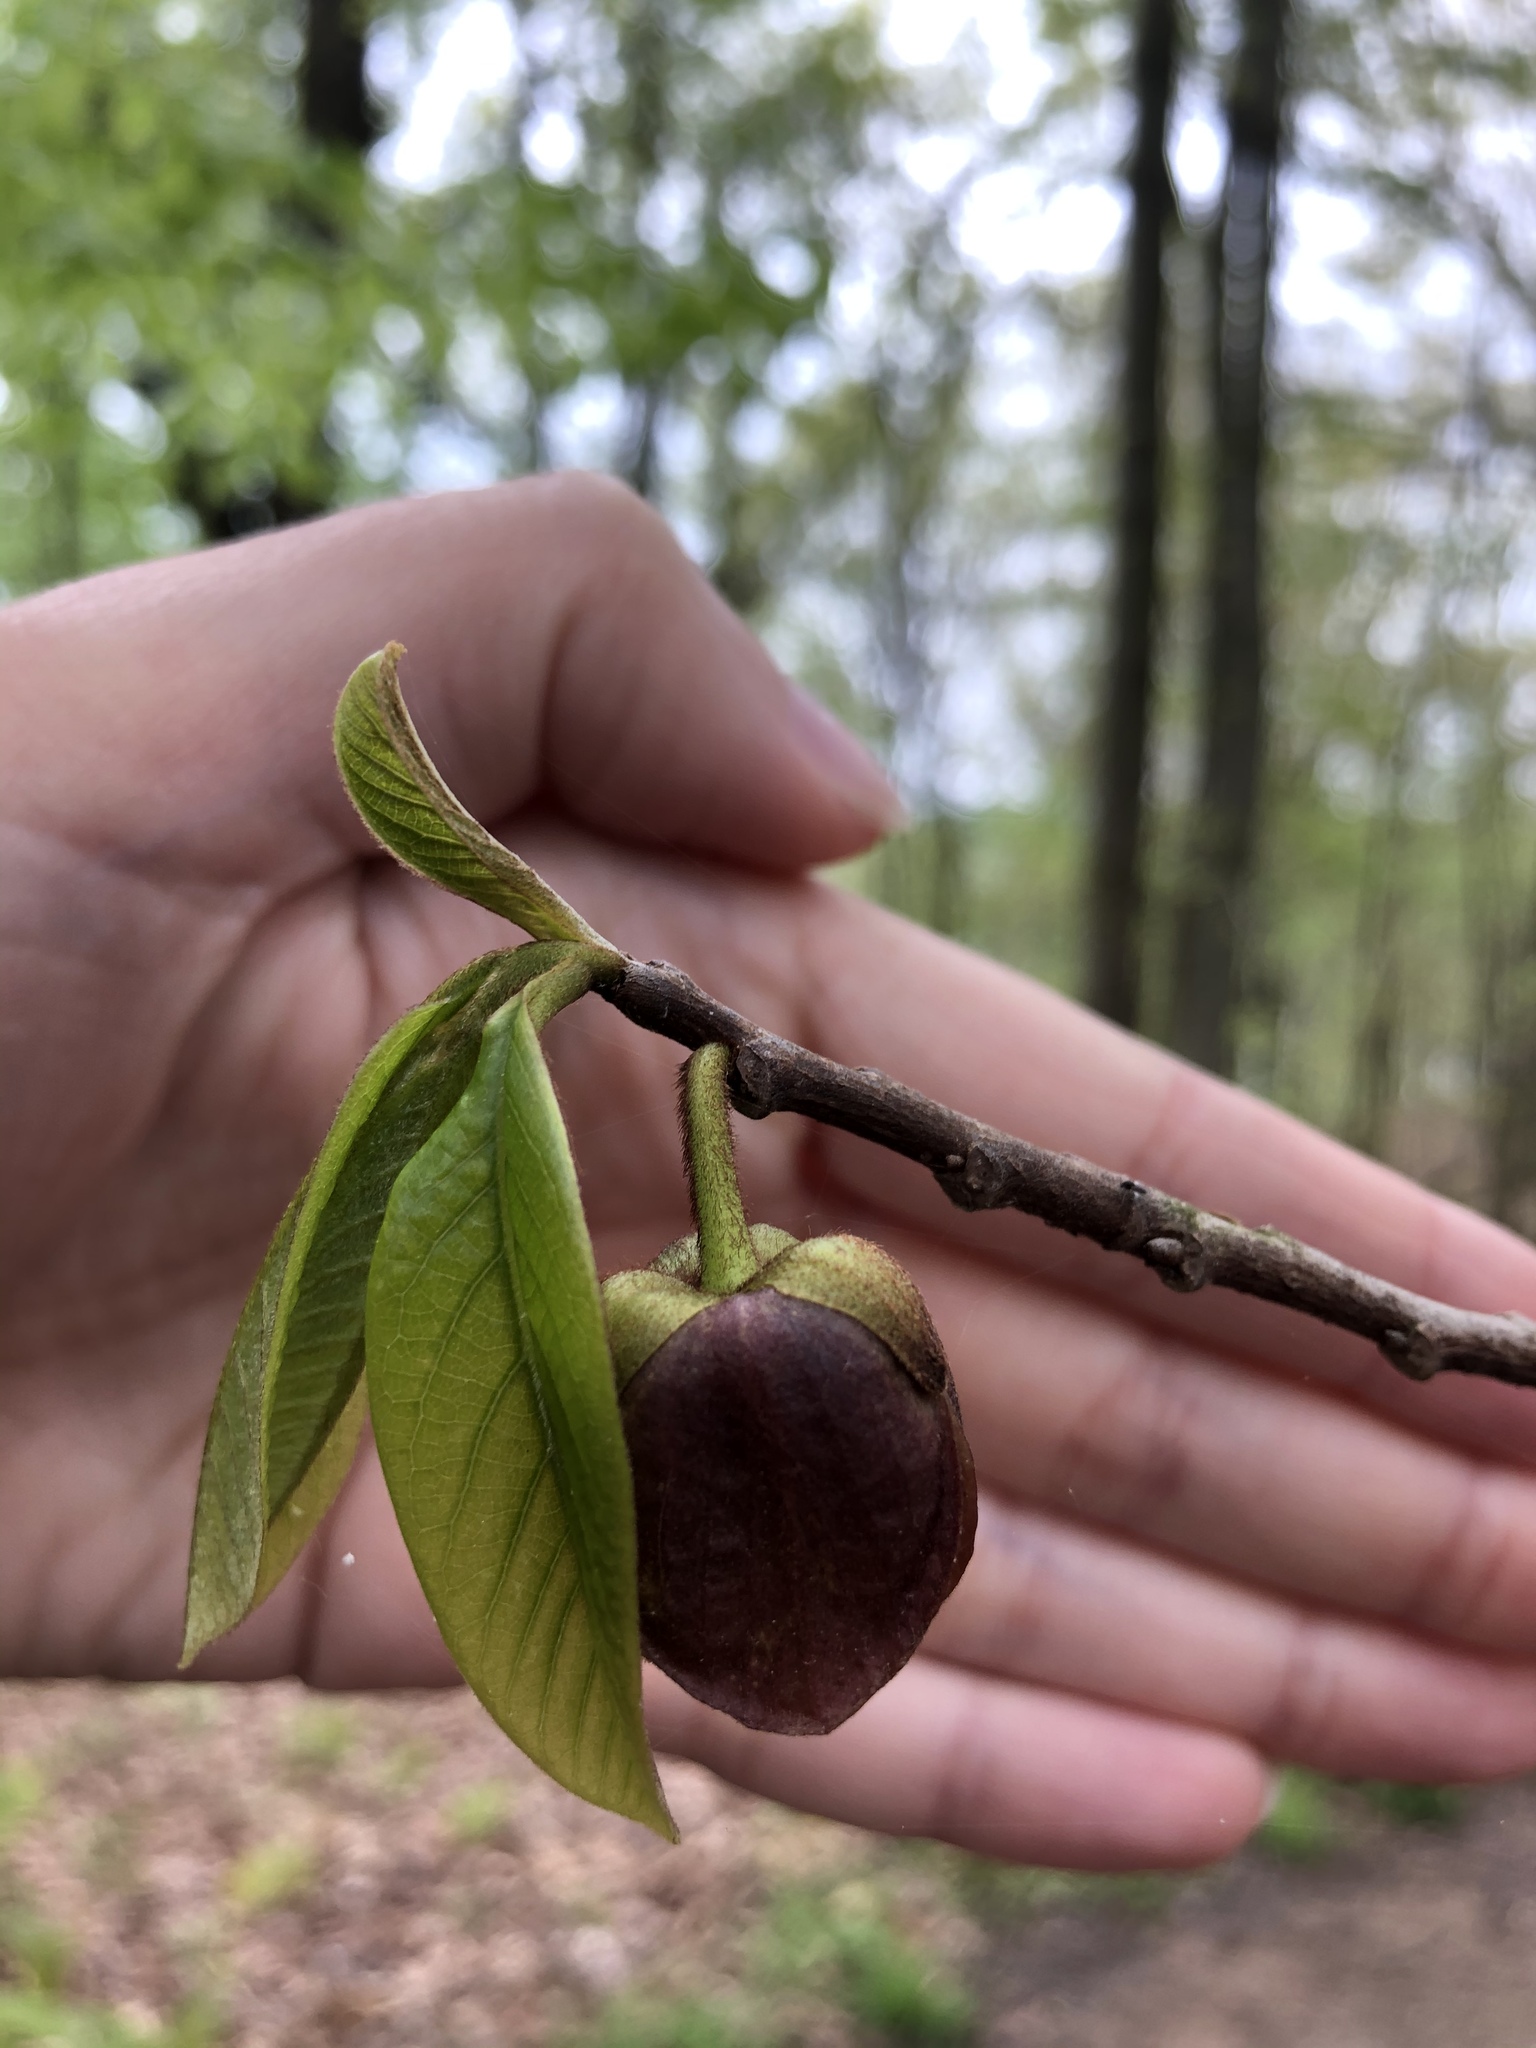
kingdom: Plantae
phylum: Tracheophyta
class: Magnoliopsida
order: Magnoliales
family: Annonaceae
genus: Asimina
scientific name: Asimina triloba
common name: Dog-banana
